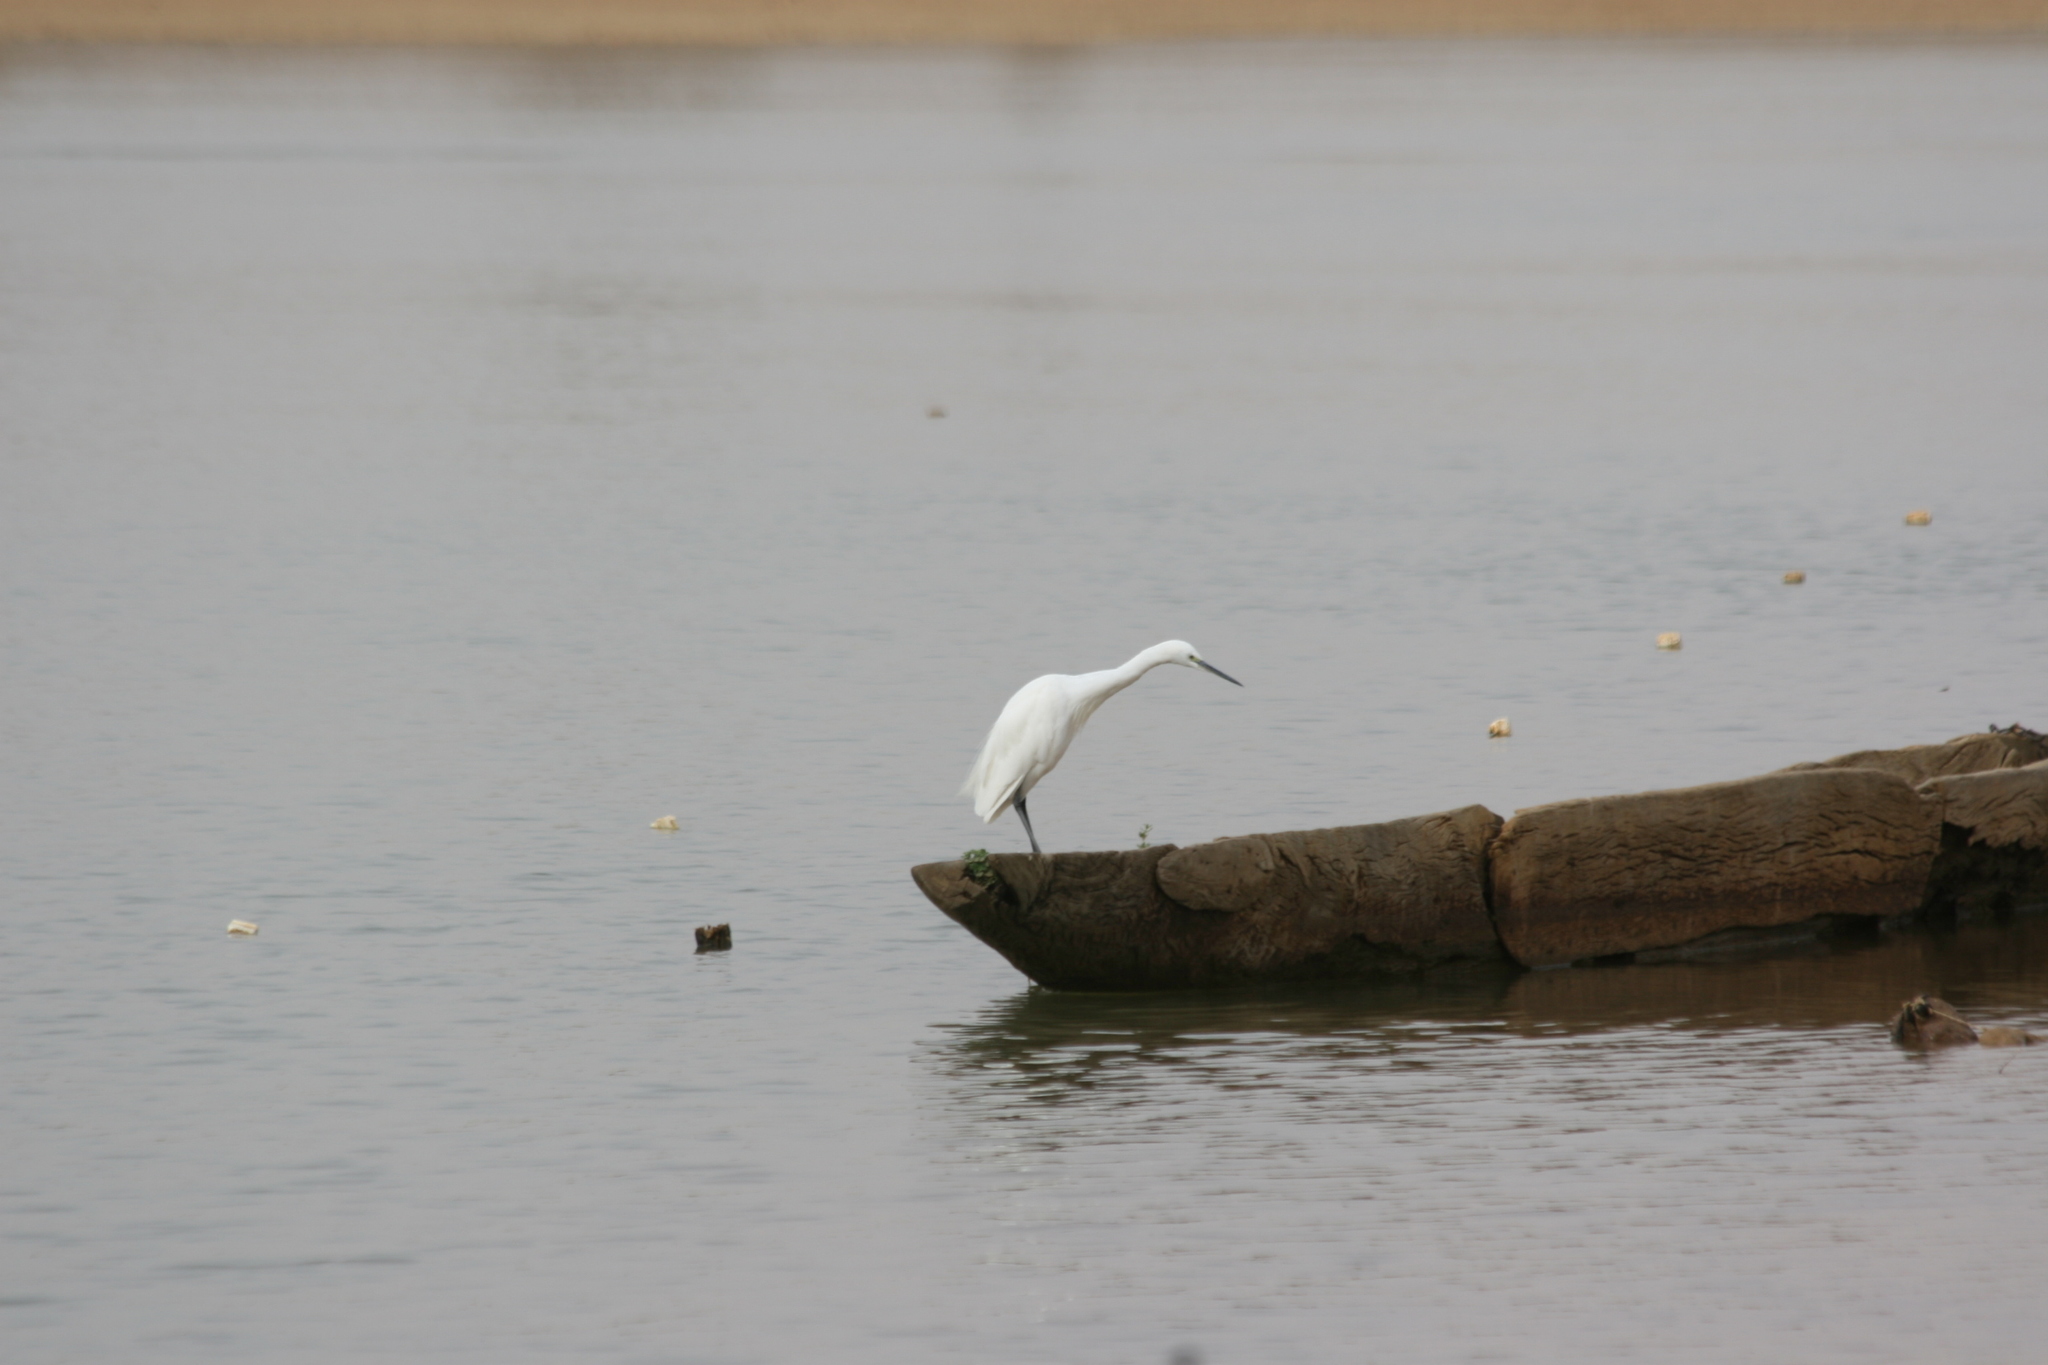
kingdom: Animalia
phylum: Chordata
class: Aves
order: Pelecaniformes
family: Ardeidae
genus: Egretta
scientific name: Egretta garzetta
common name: Little egret
